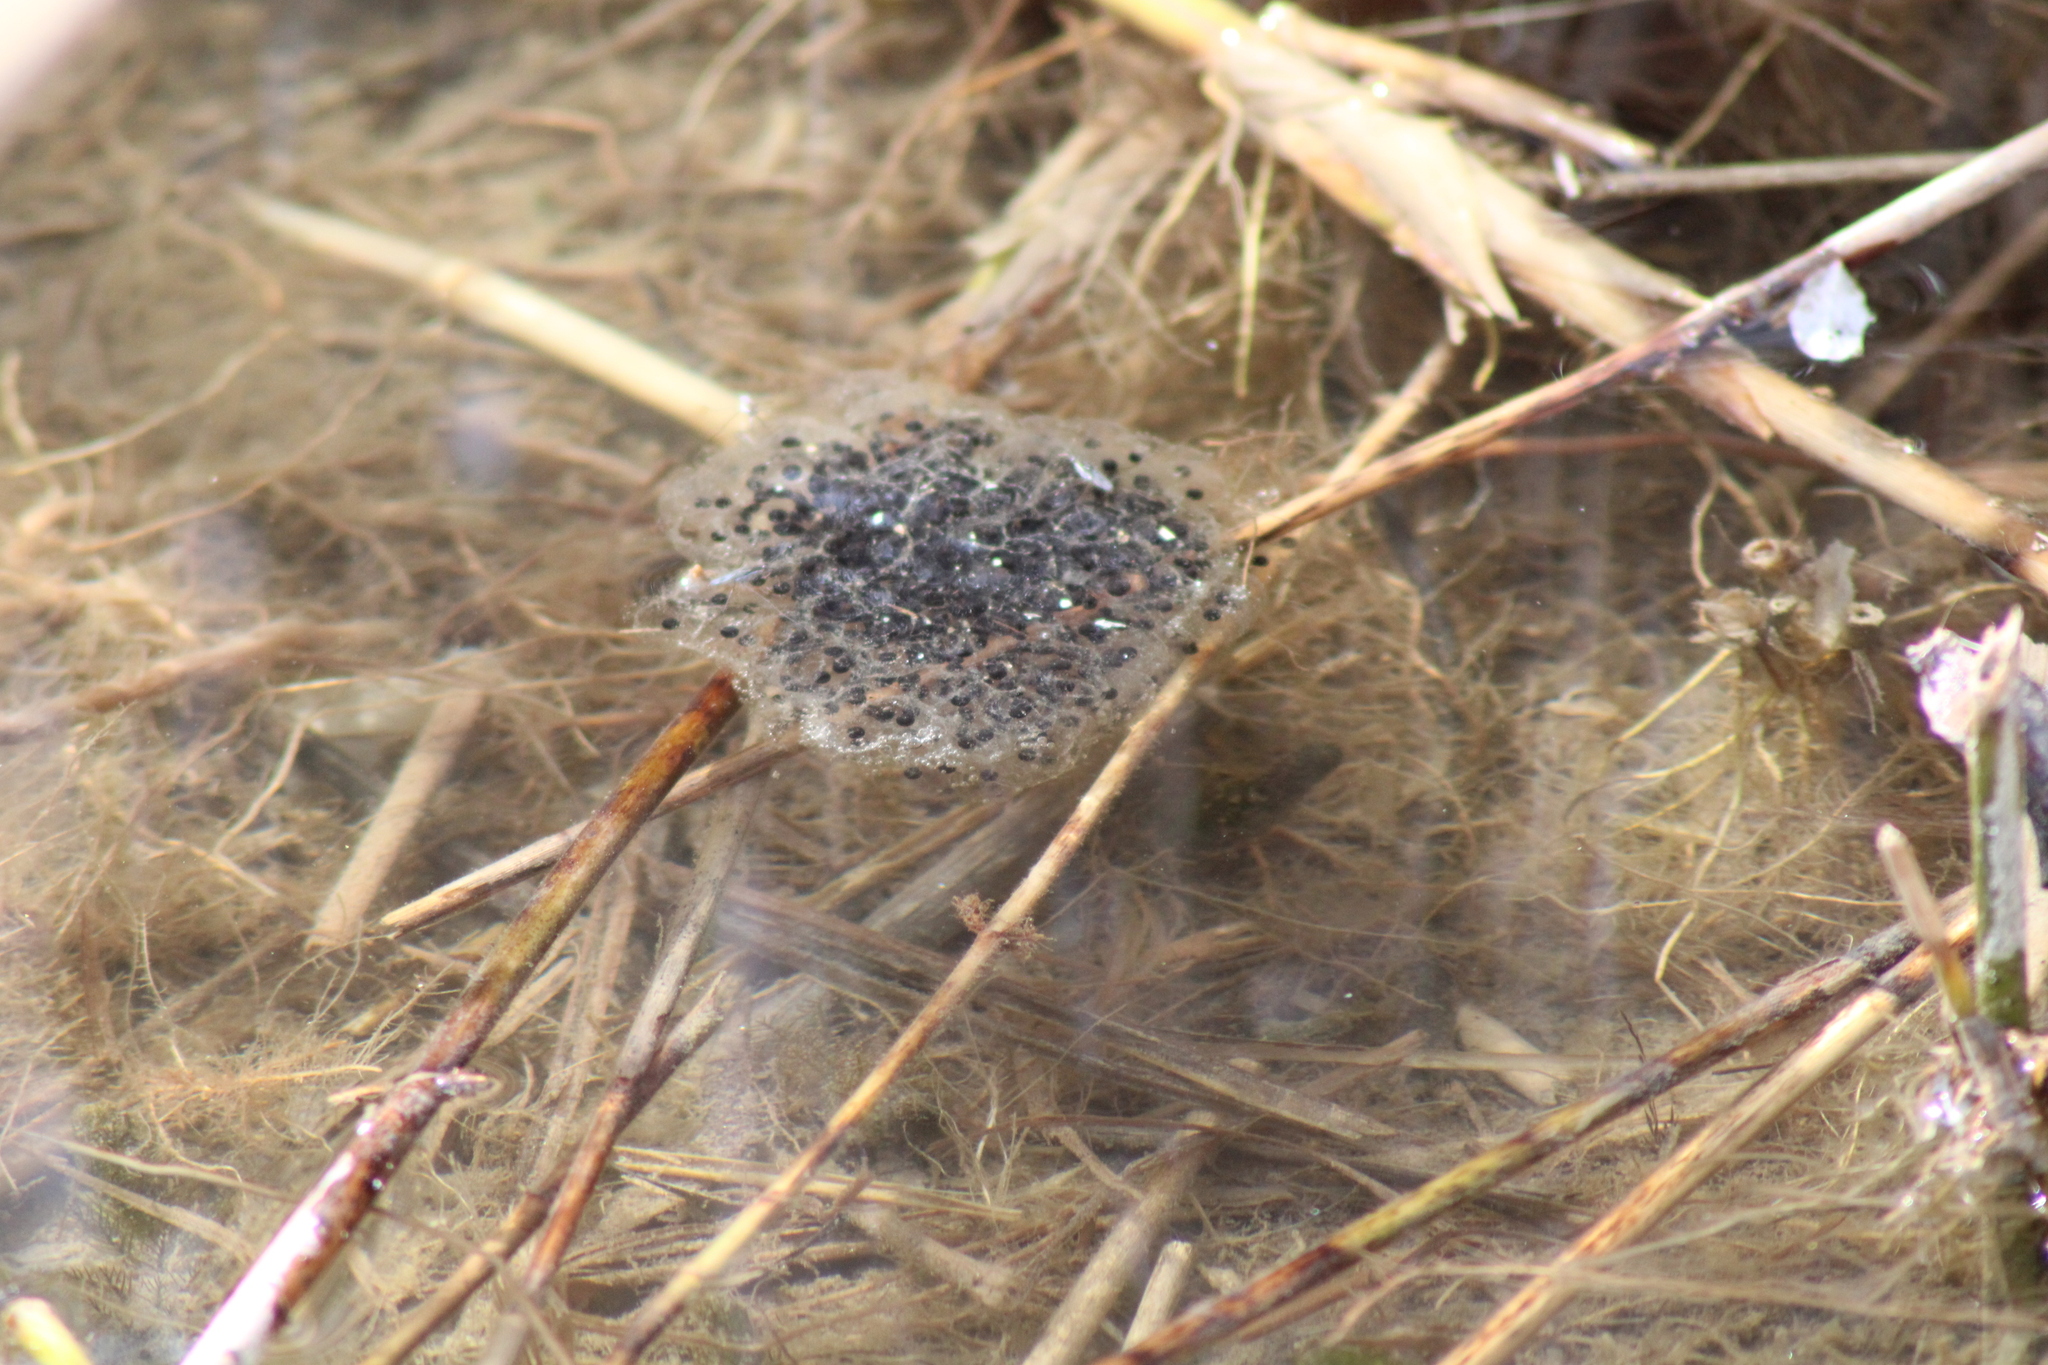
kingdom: Animalia
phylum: Chordata
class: Amphibia
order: Anura
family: Ranidae
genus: Rana
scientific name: Rana dalmatina
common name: Agile frog
